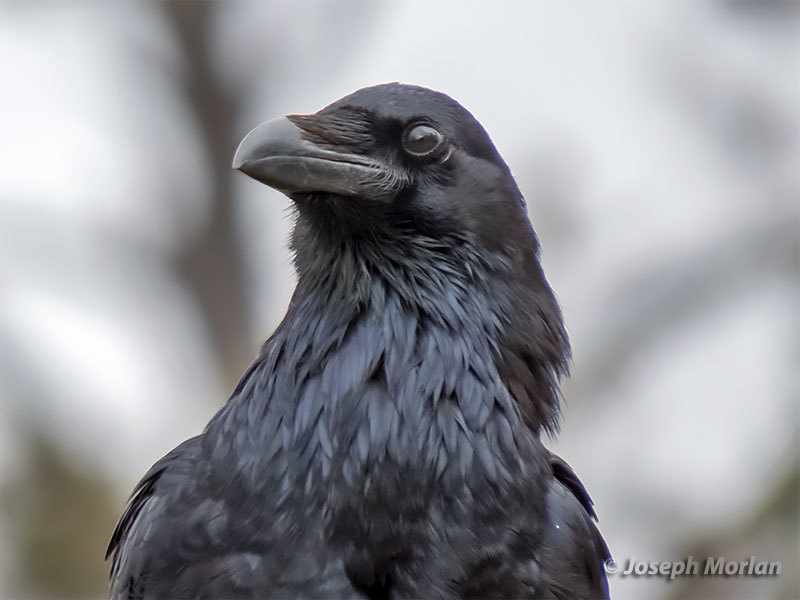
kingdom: Animalia
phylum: Chordata
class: Aves
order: Passeriformes
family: Corvidae
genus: Corvus
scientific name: Corvus corax
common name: Common raven
